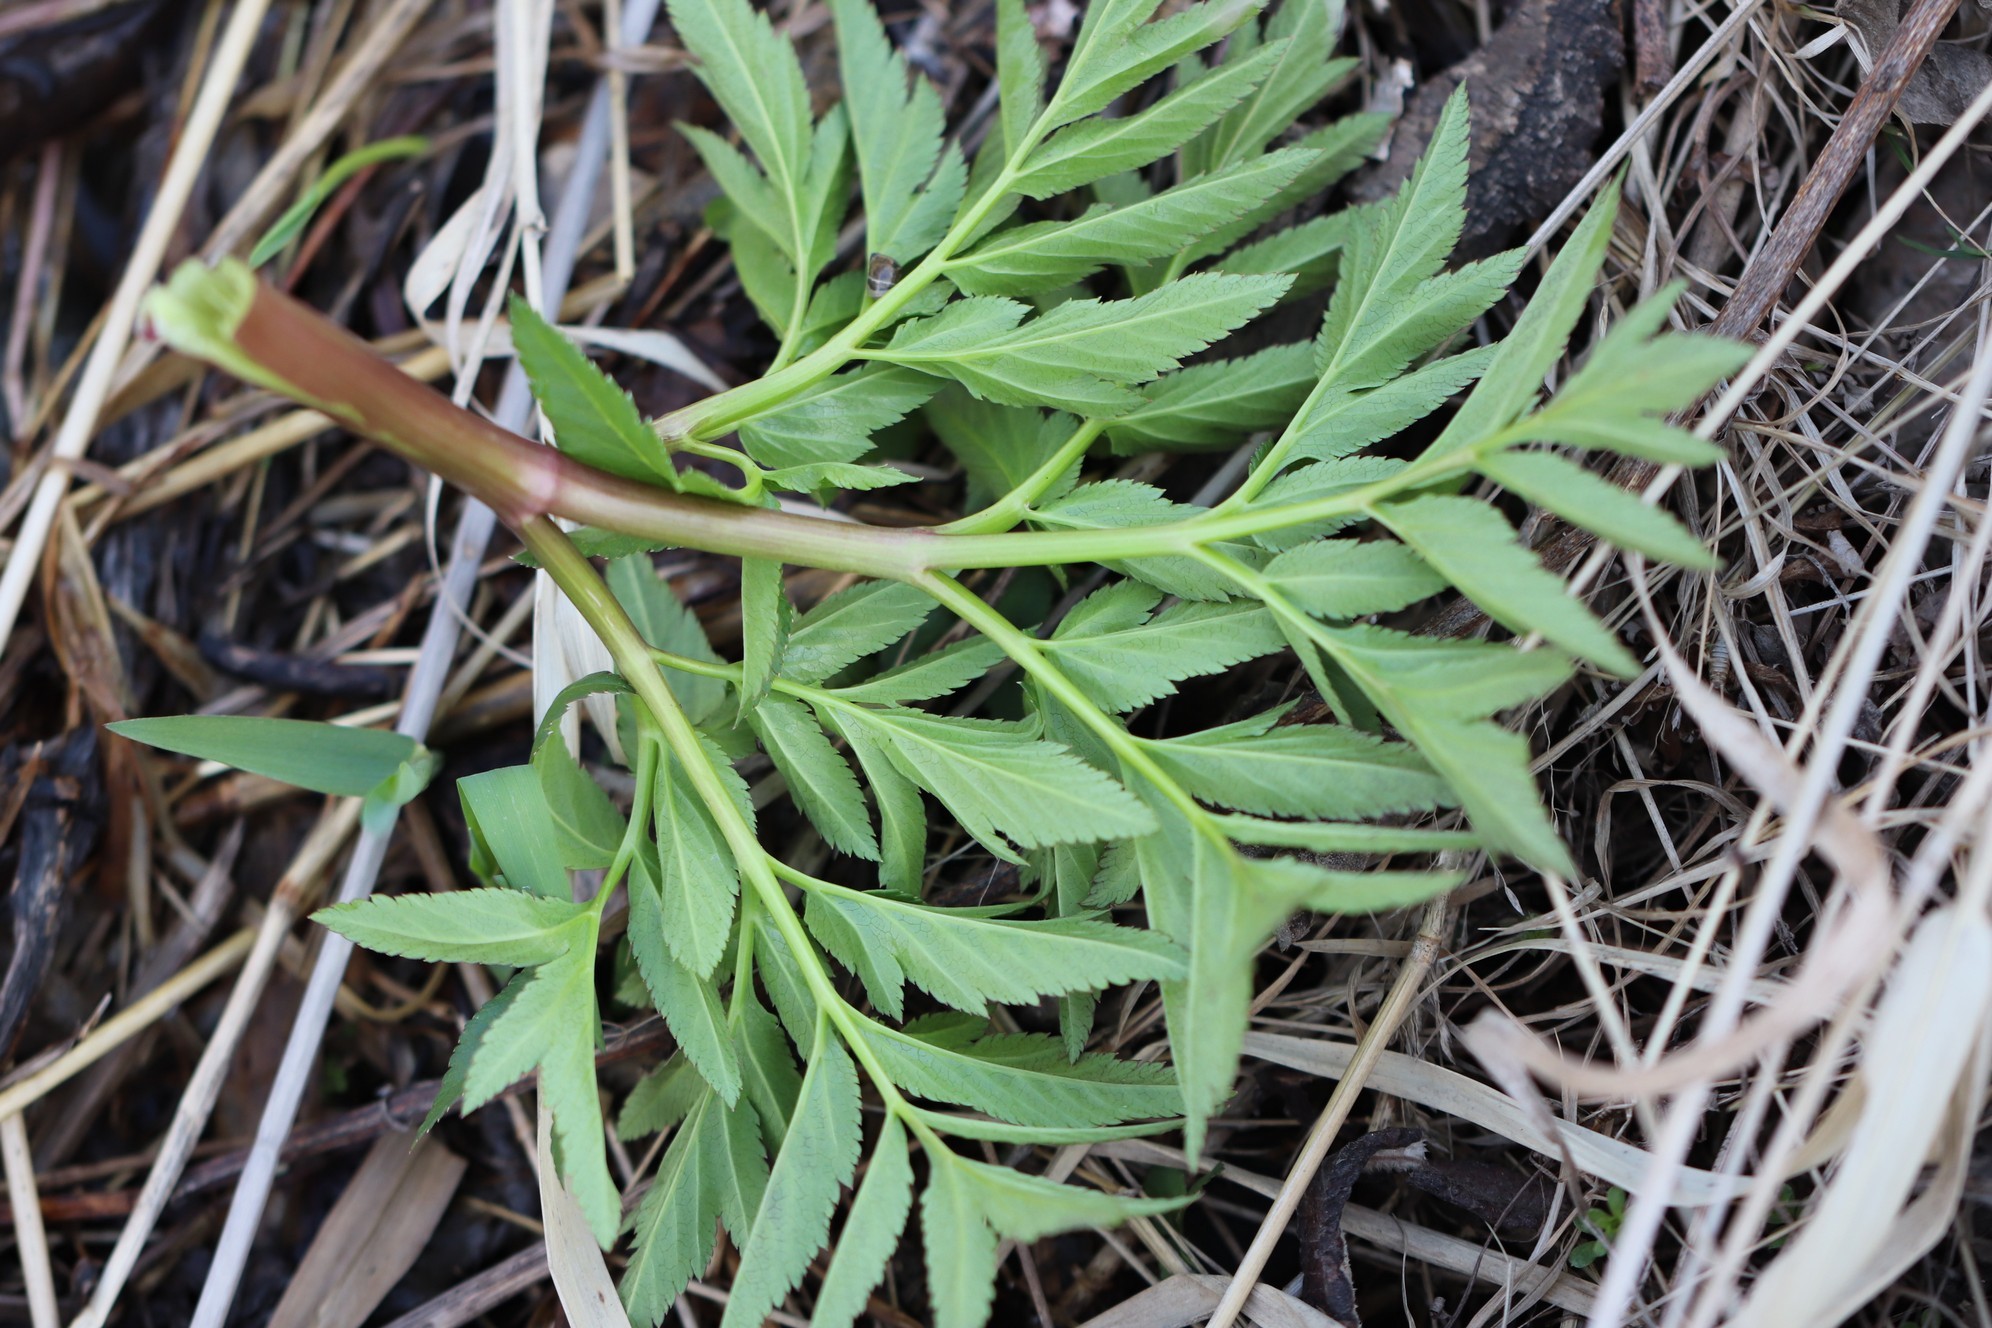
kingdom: Plantae
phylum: Tracheophyta
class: Magnoliopsida
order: Apiales
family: Apiaceae
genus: Angelica
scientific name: Angelica decurrens
